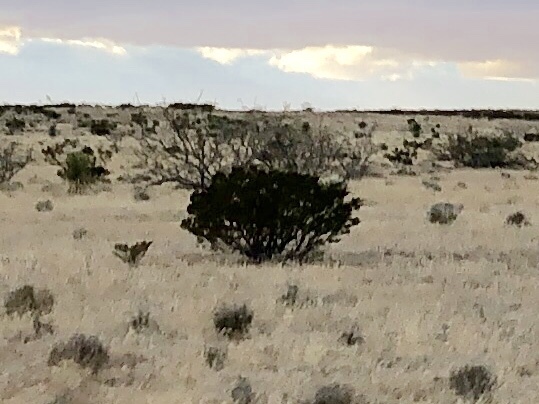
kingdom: Plantae
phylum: Tracheophyta
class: Magnoliopsida
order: Zygophyllales
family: Zygophyllaceae
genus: Larrea
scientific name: Larrea tridentata
